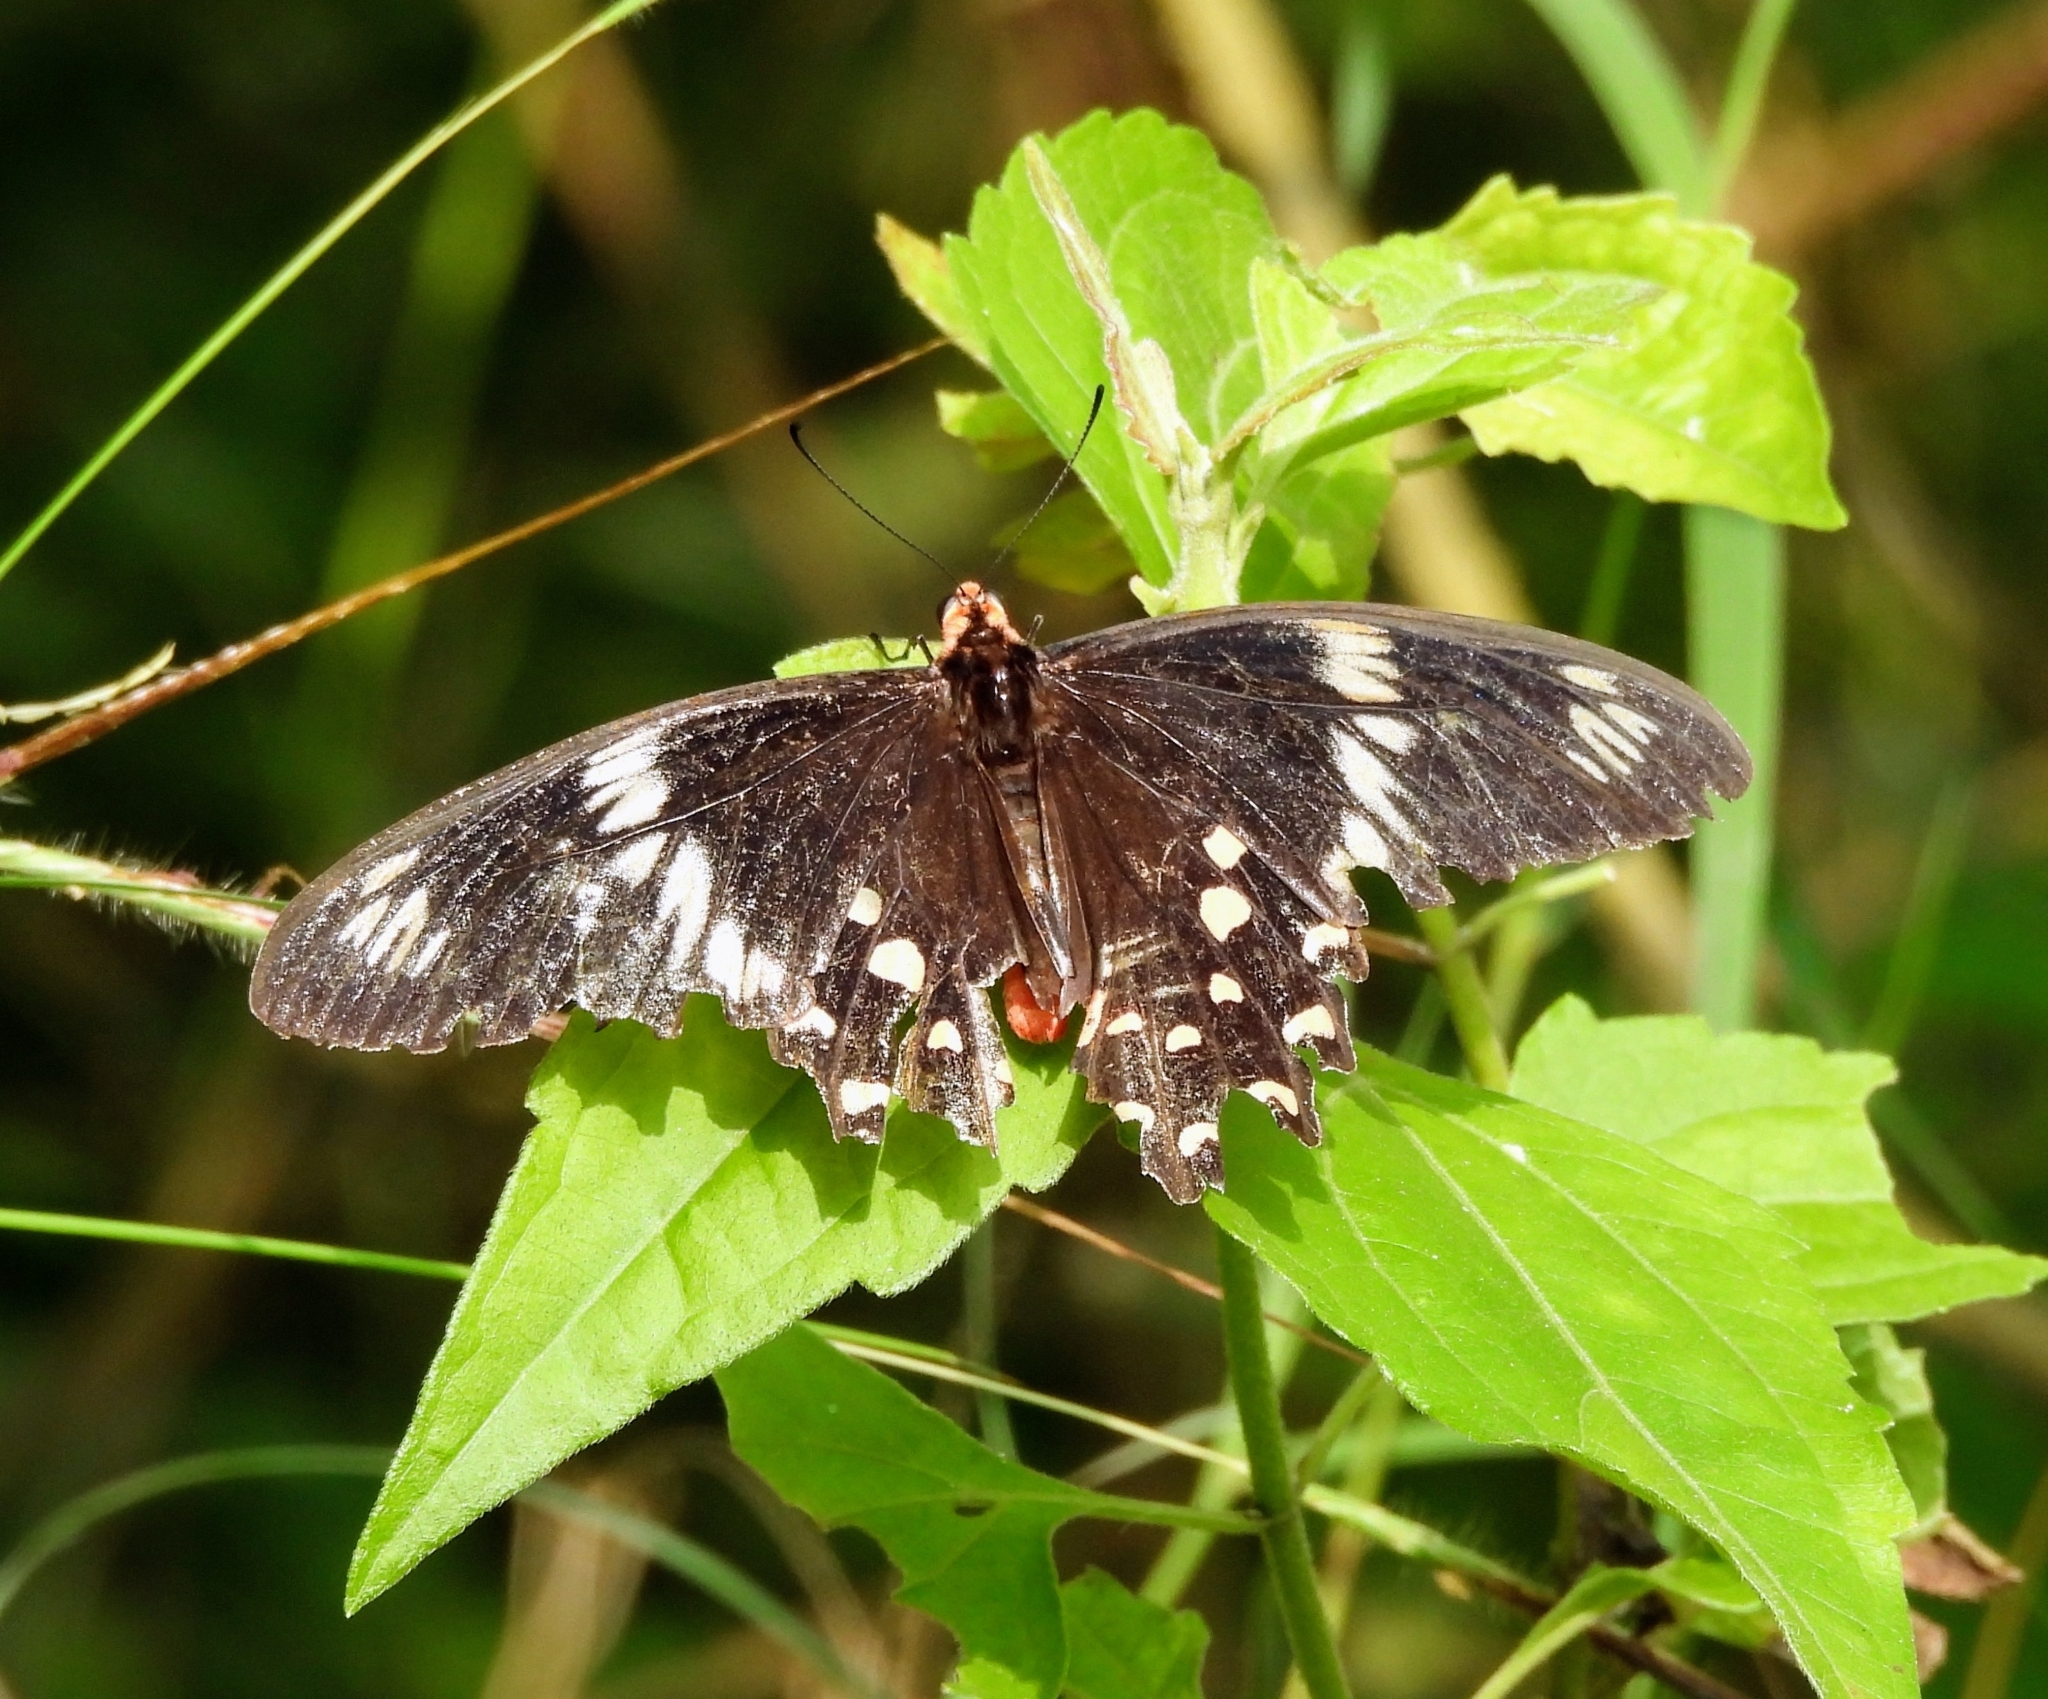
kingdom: Animalia
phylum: Arthropoda
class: Insecta
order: Lepidoptera
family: Papilionidae
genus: Pachliopta
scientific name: Pachliopta hector
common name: Crimson rose
